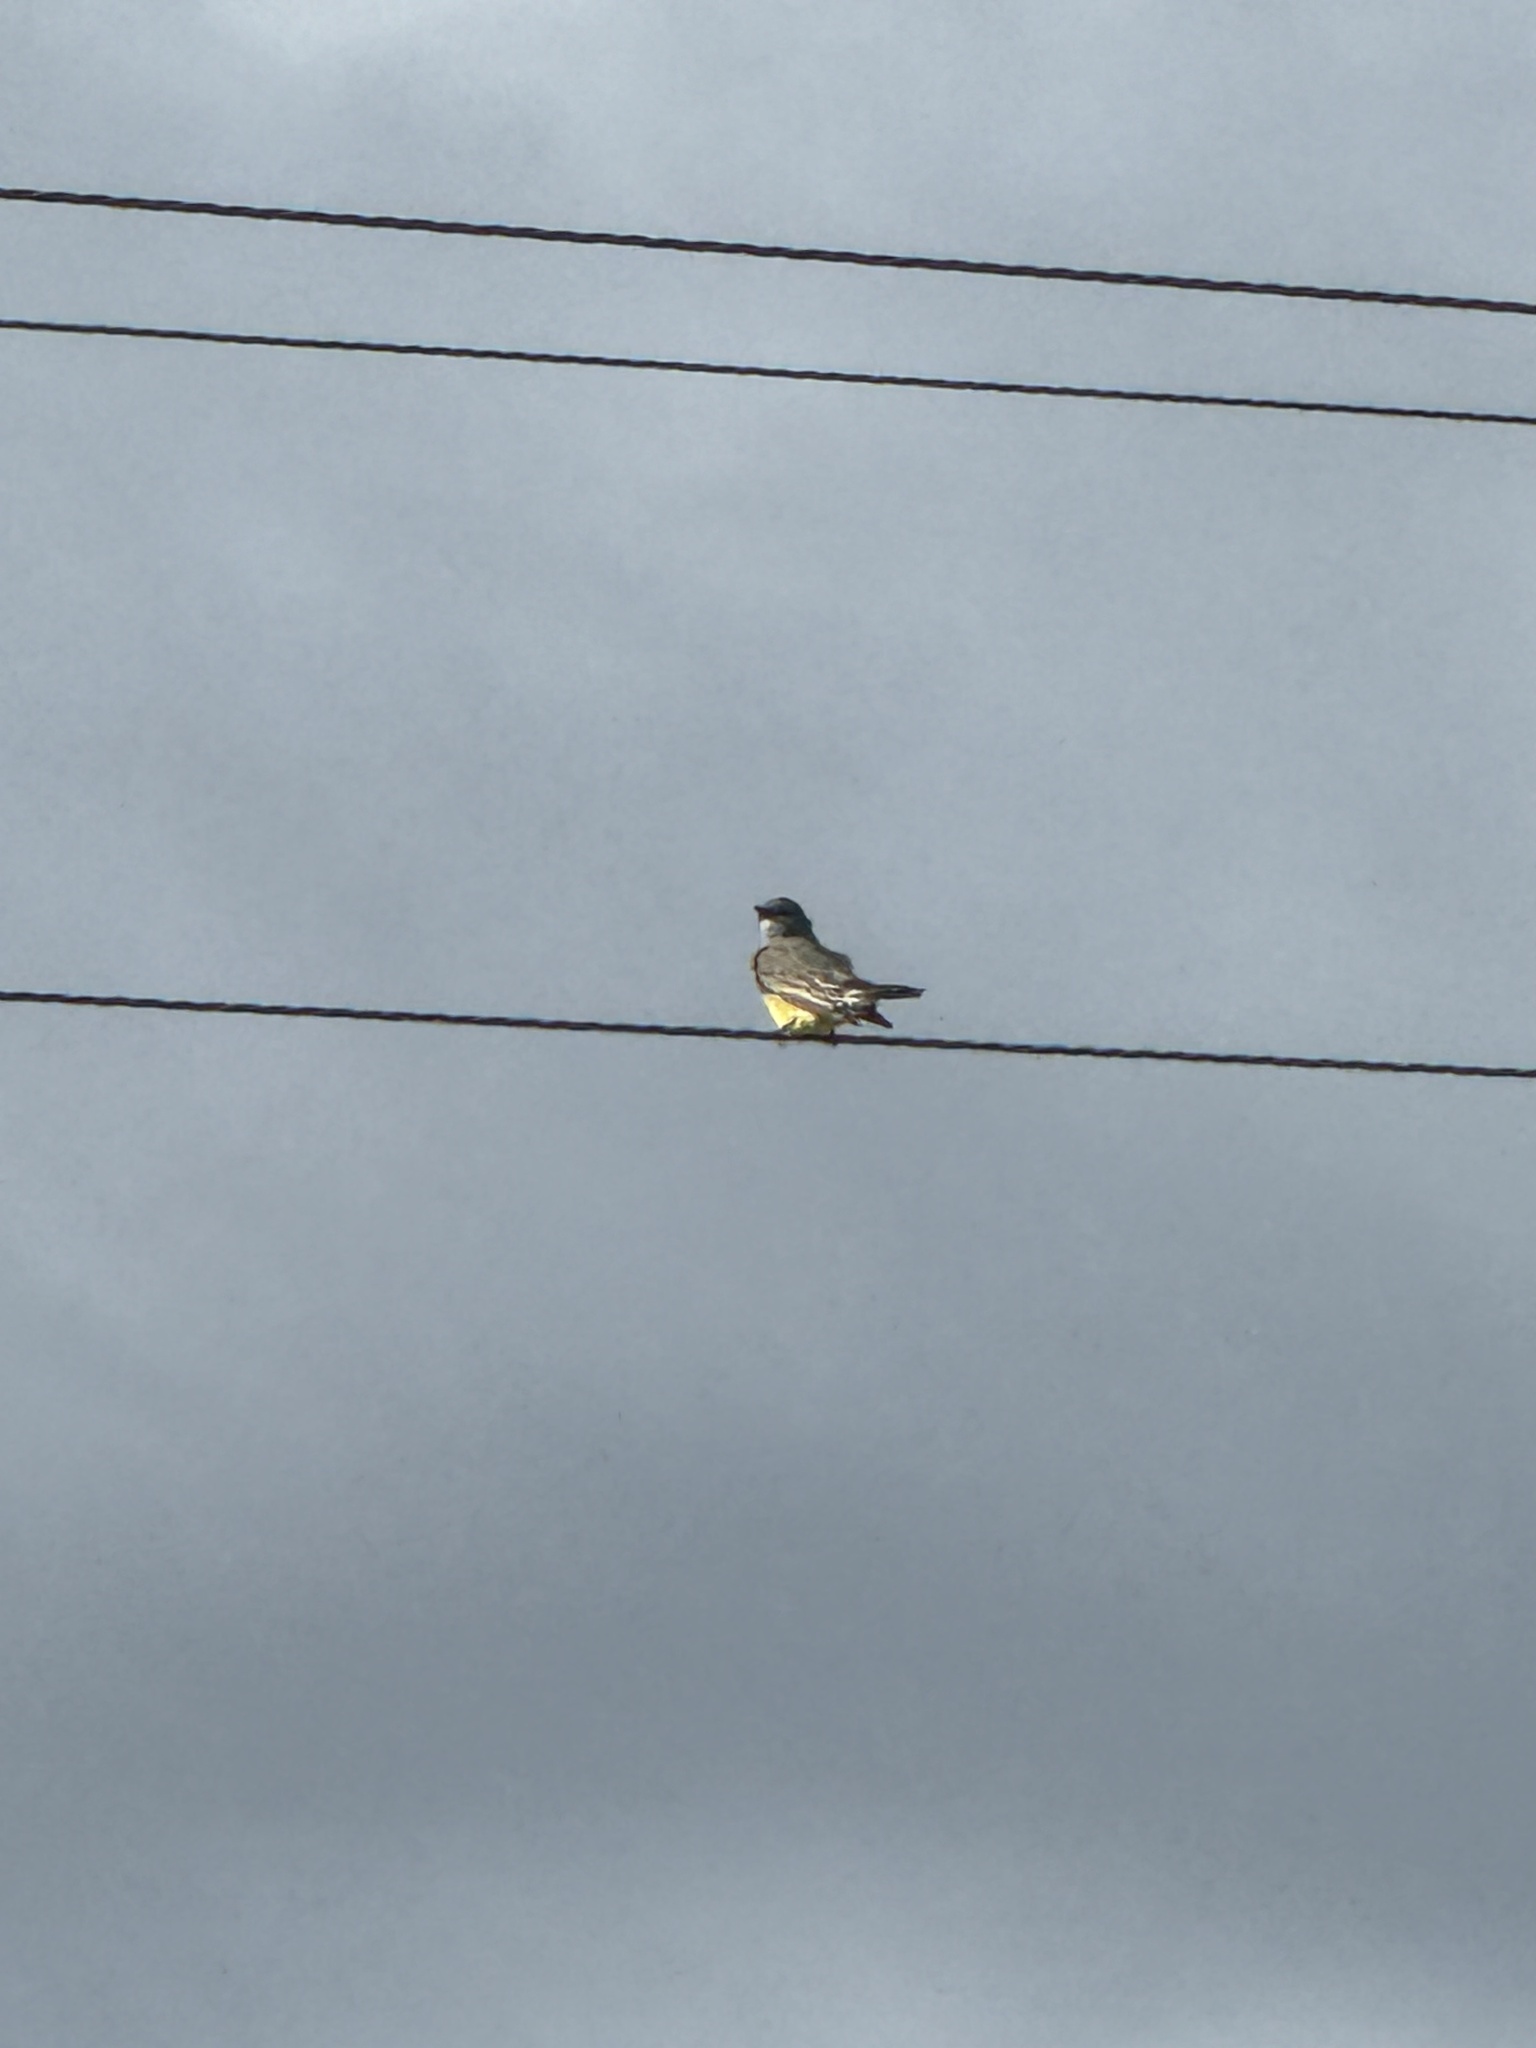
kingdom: Animalia
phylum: Chordata
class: Aves
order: Passeriformes
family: Tyrannidae
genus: Tyrannus
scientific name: Tyrannus vociferans
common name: Cassin's kingbird
